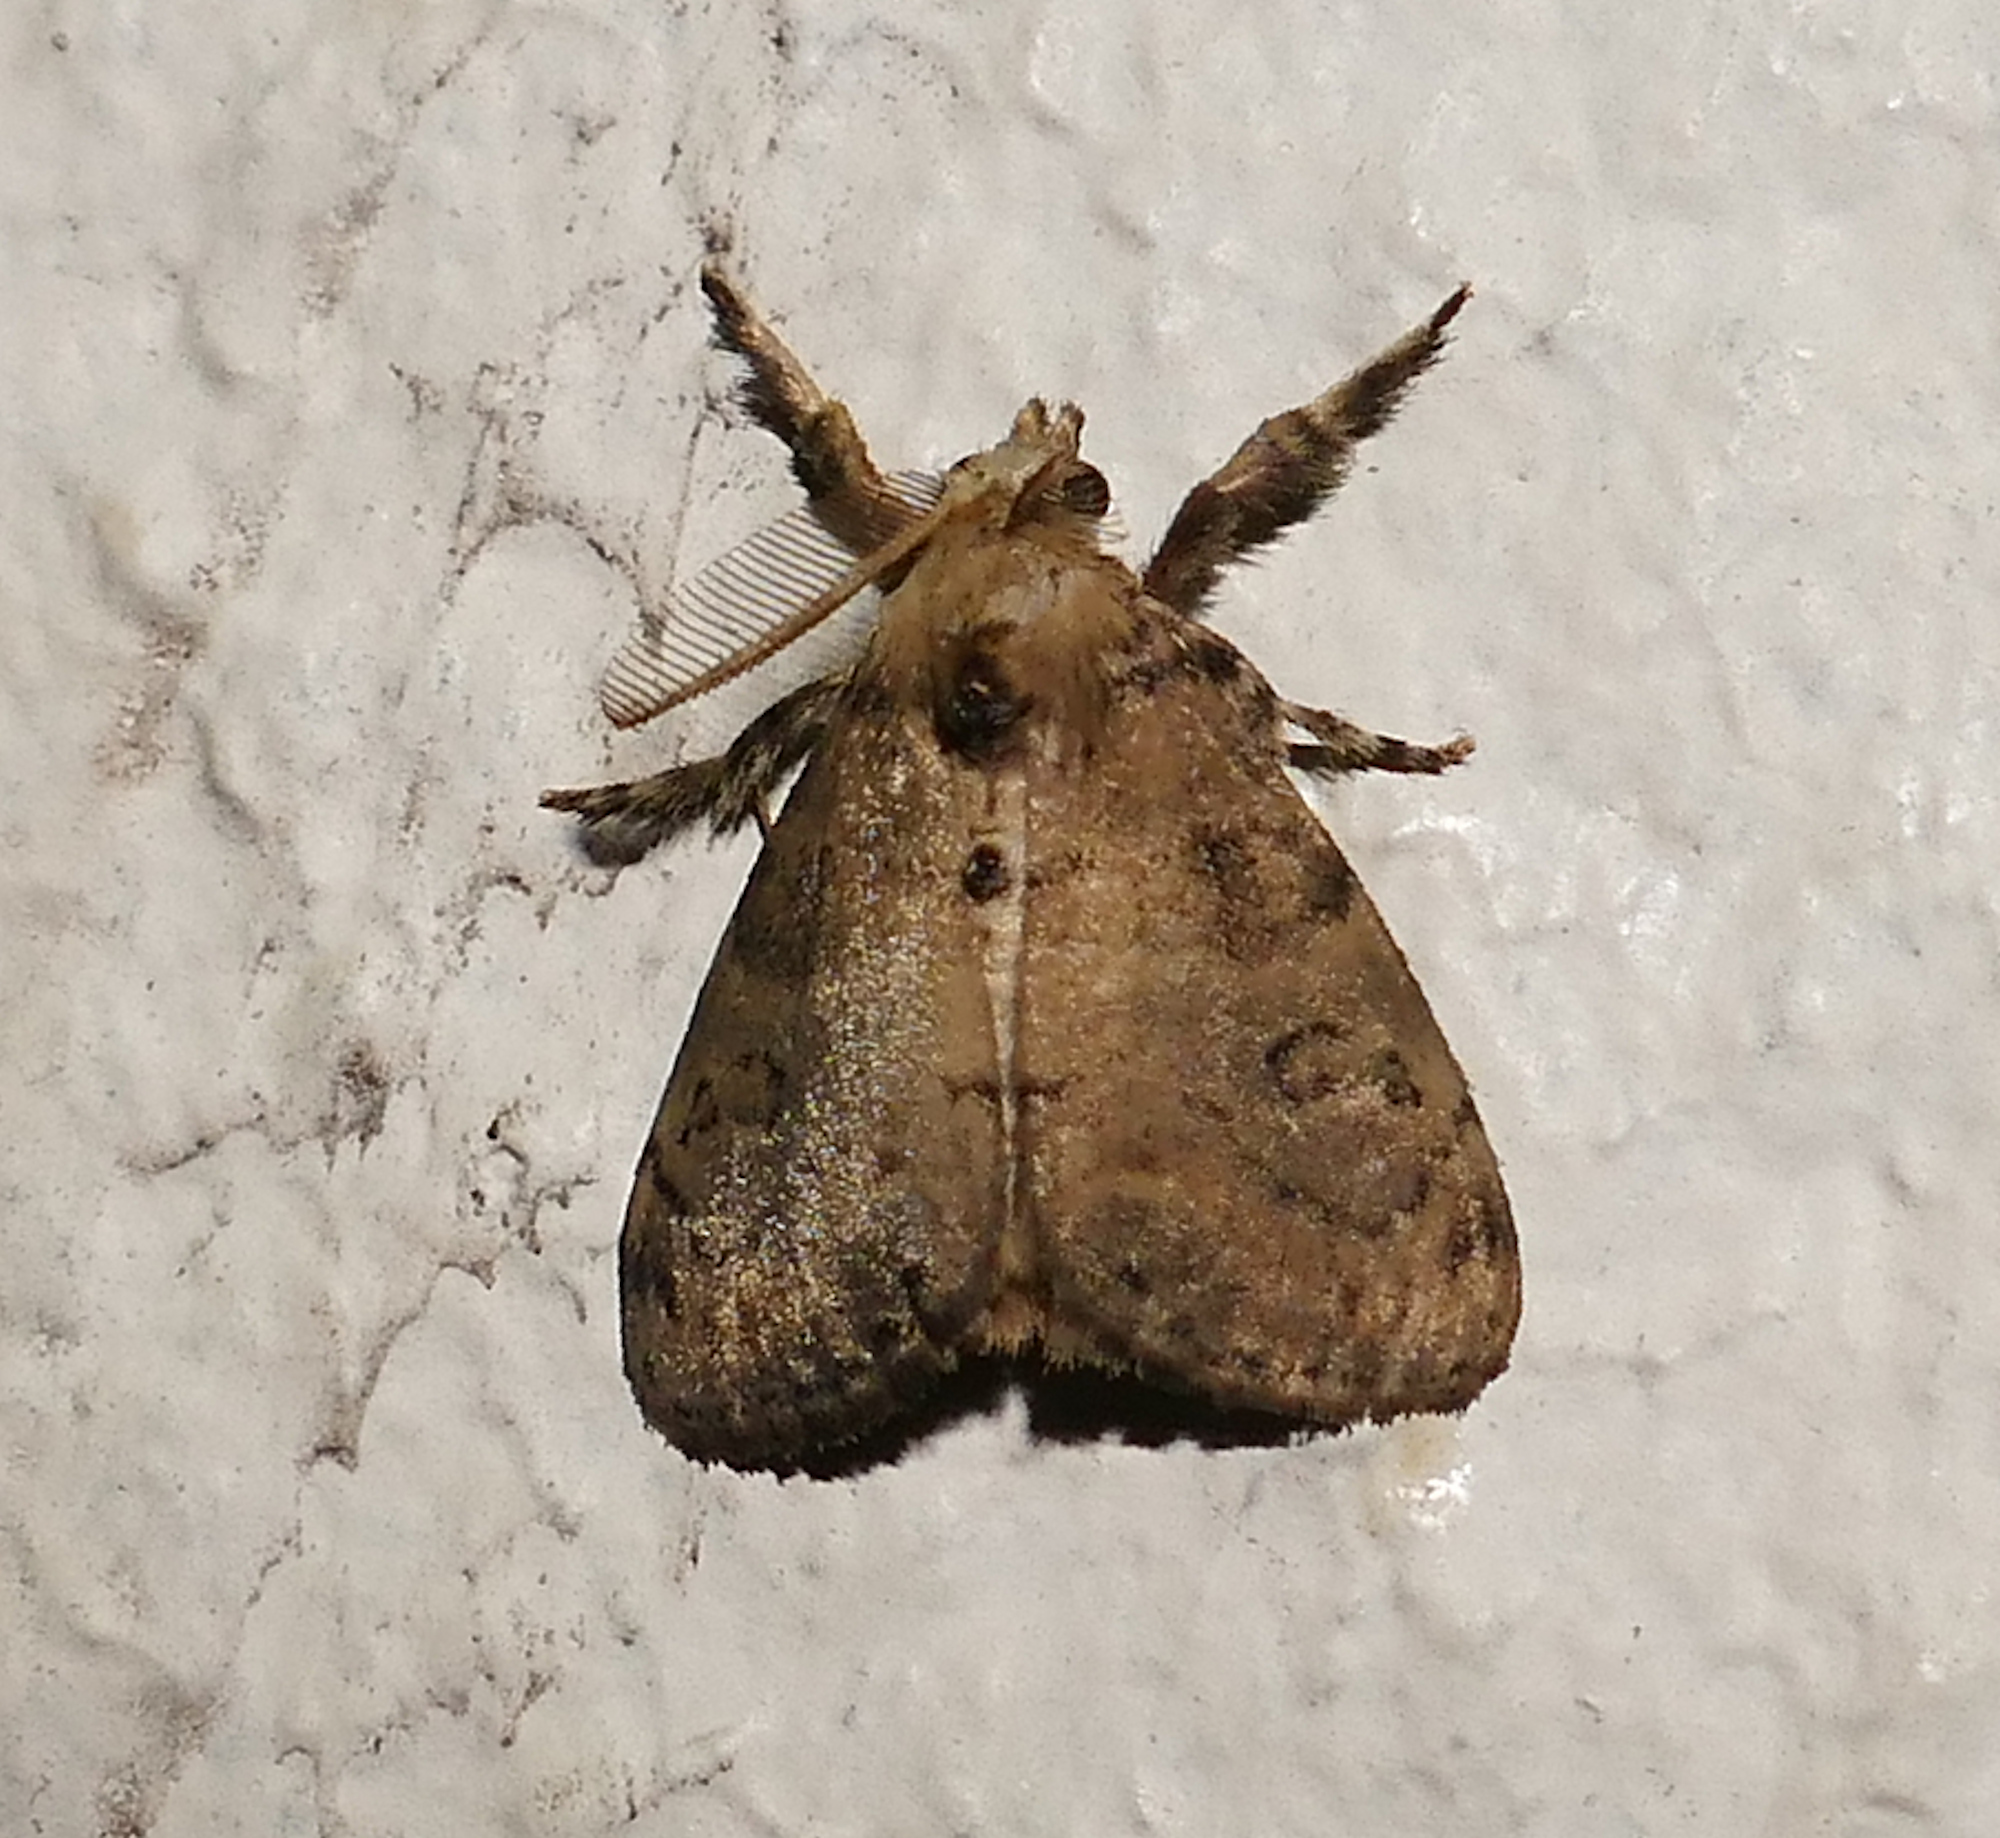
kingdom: Animalia
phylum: Arthropoda
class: Insecta
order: Lepidoptera
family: Erebidae
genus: Orgyia
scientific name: Orgyia leucostigma
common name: White-marked tussock moth
